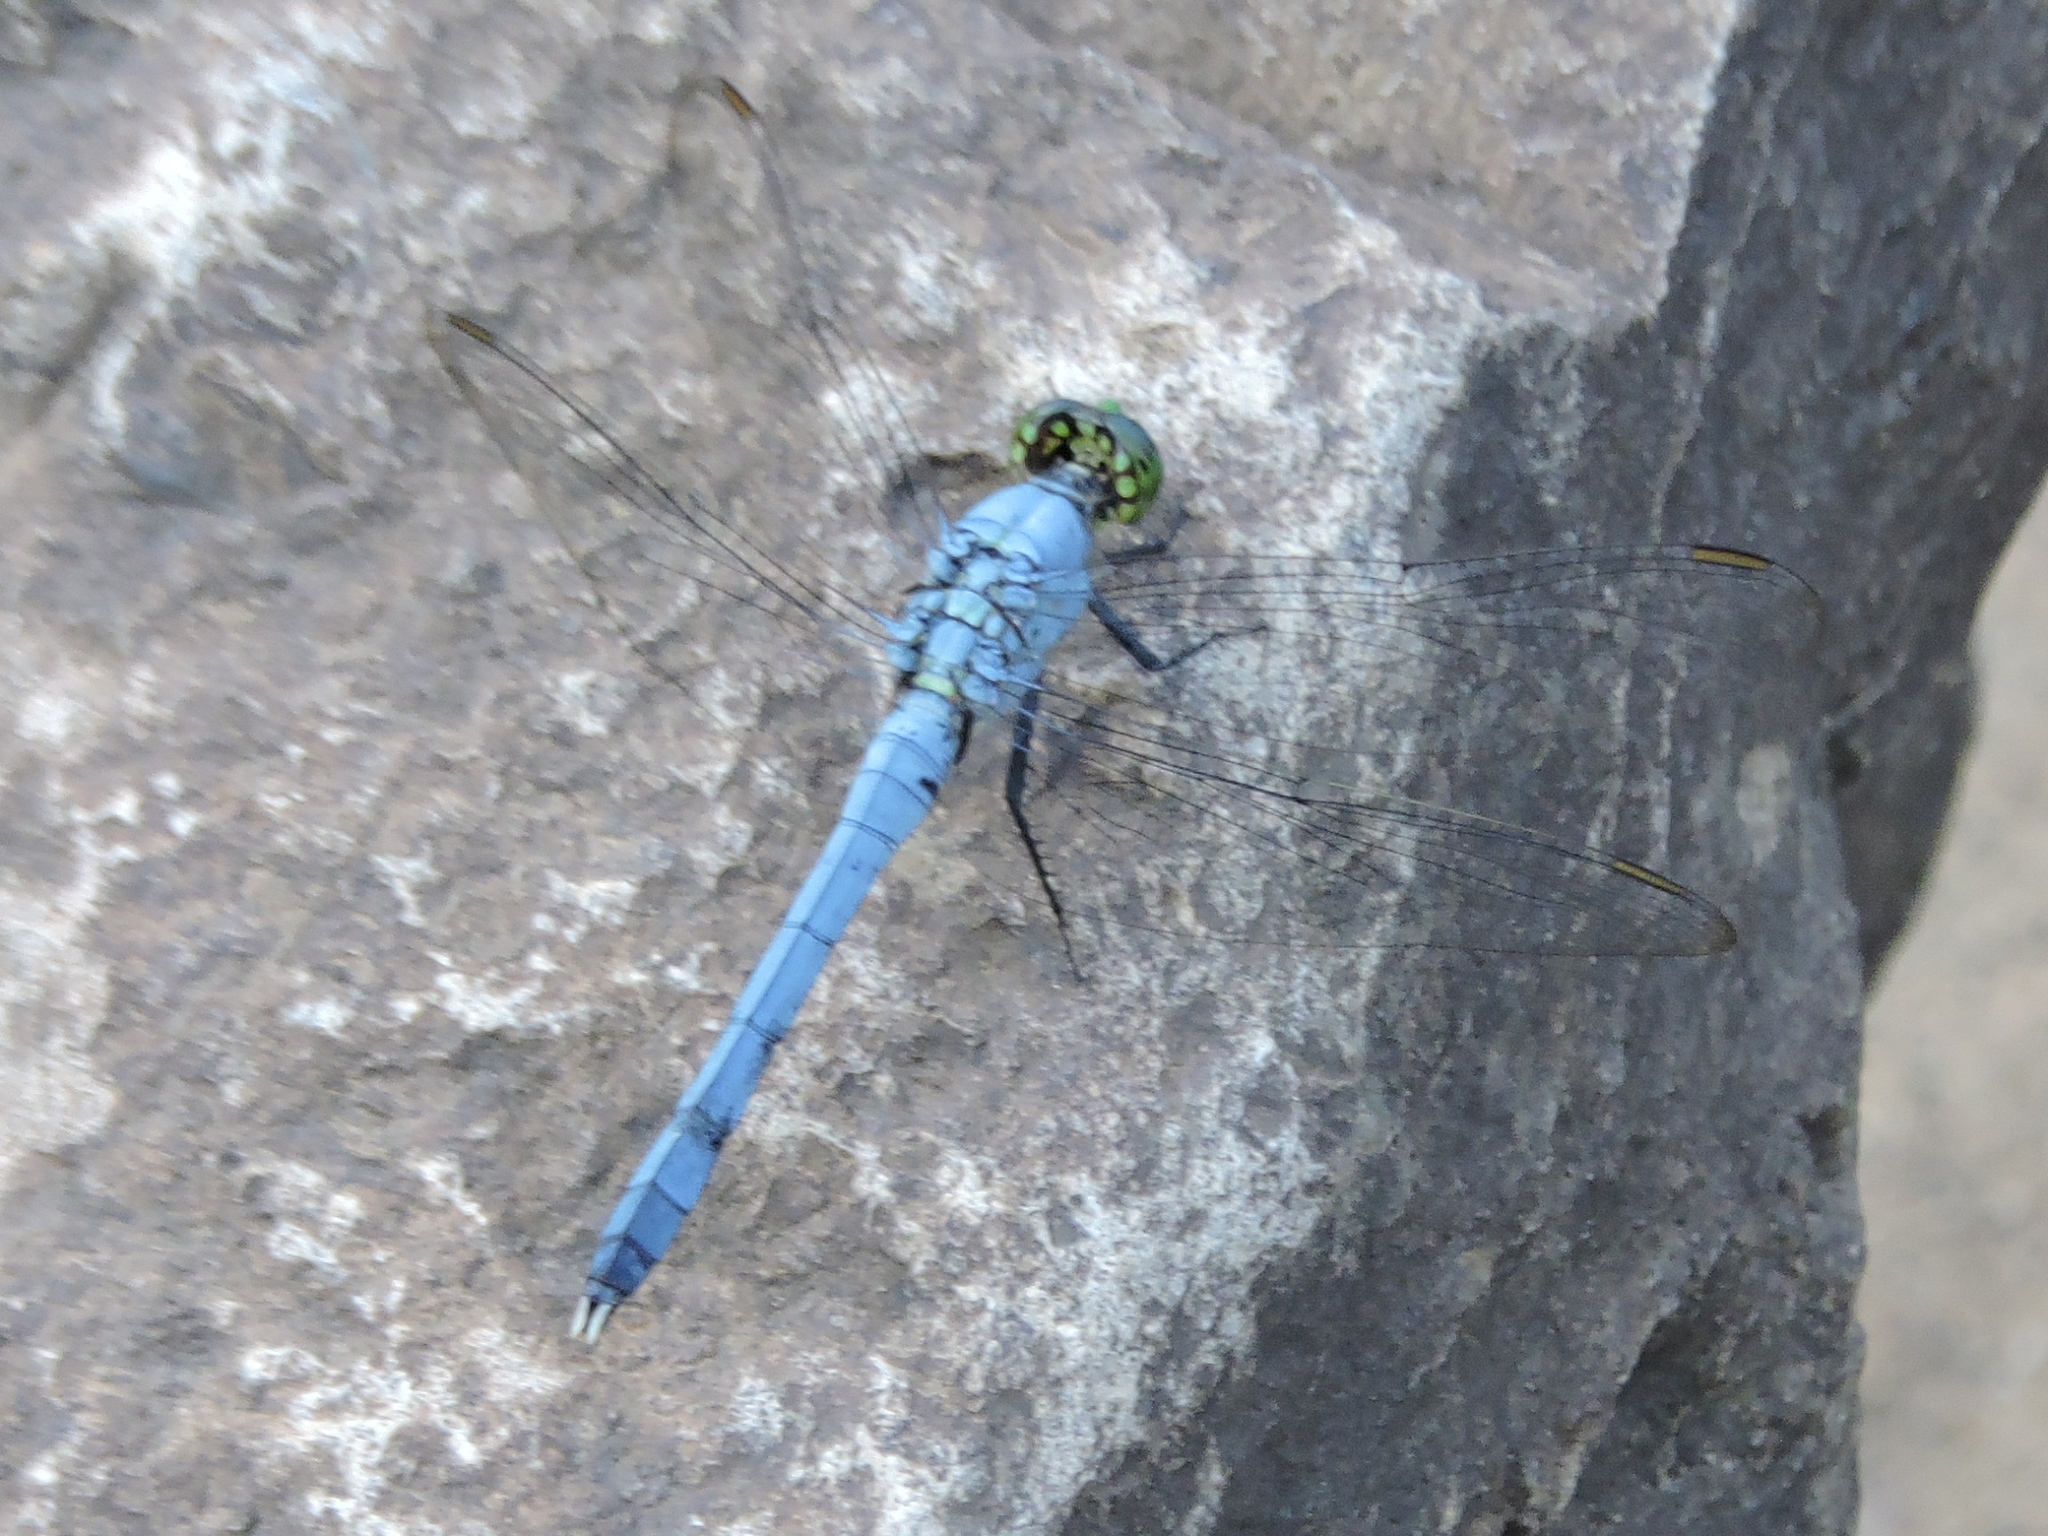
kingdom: Animalia
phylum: Arthropoda
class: Insecta
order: Odonata
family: Libellulidae
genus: Erythemis
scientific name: Erythemis simplicicollis
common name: Eastern pondhawk
